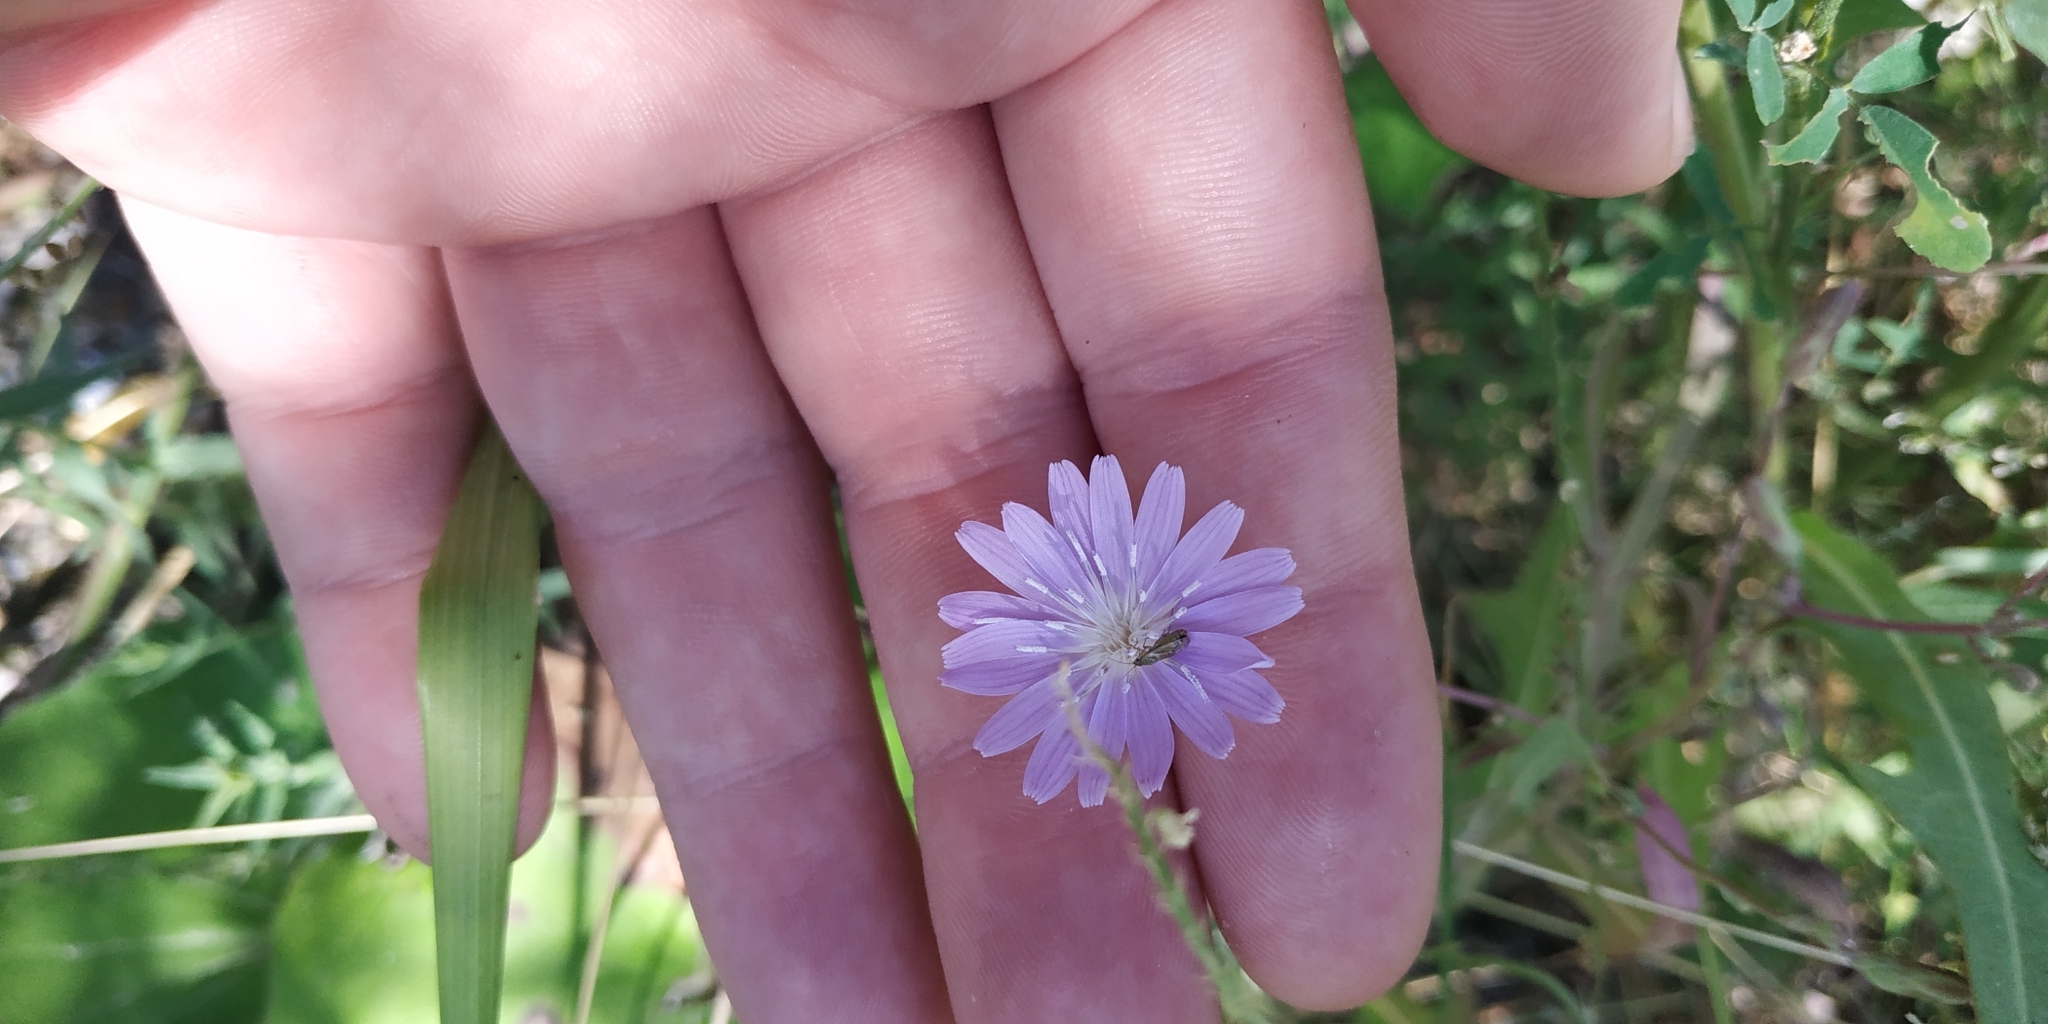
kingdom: Plantae
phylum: Tracheophyta
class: Magnoliopsida
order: Asterales
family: Asteraceae
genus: Lactuca
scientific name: Lactuca tatarica
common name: Blue lettuce
